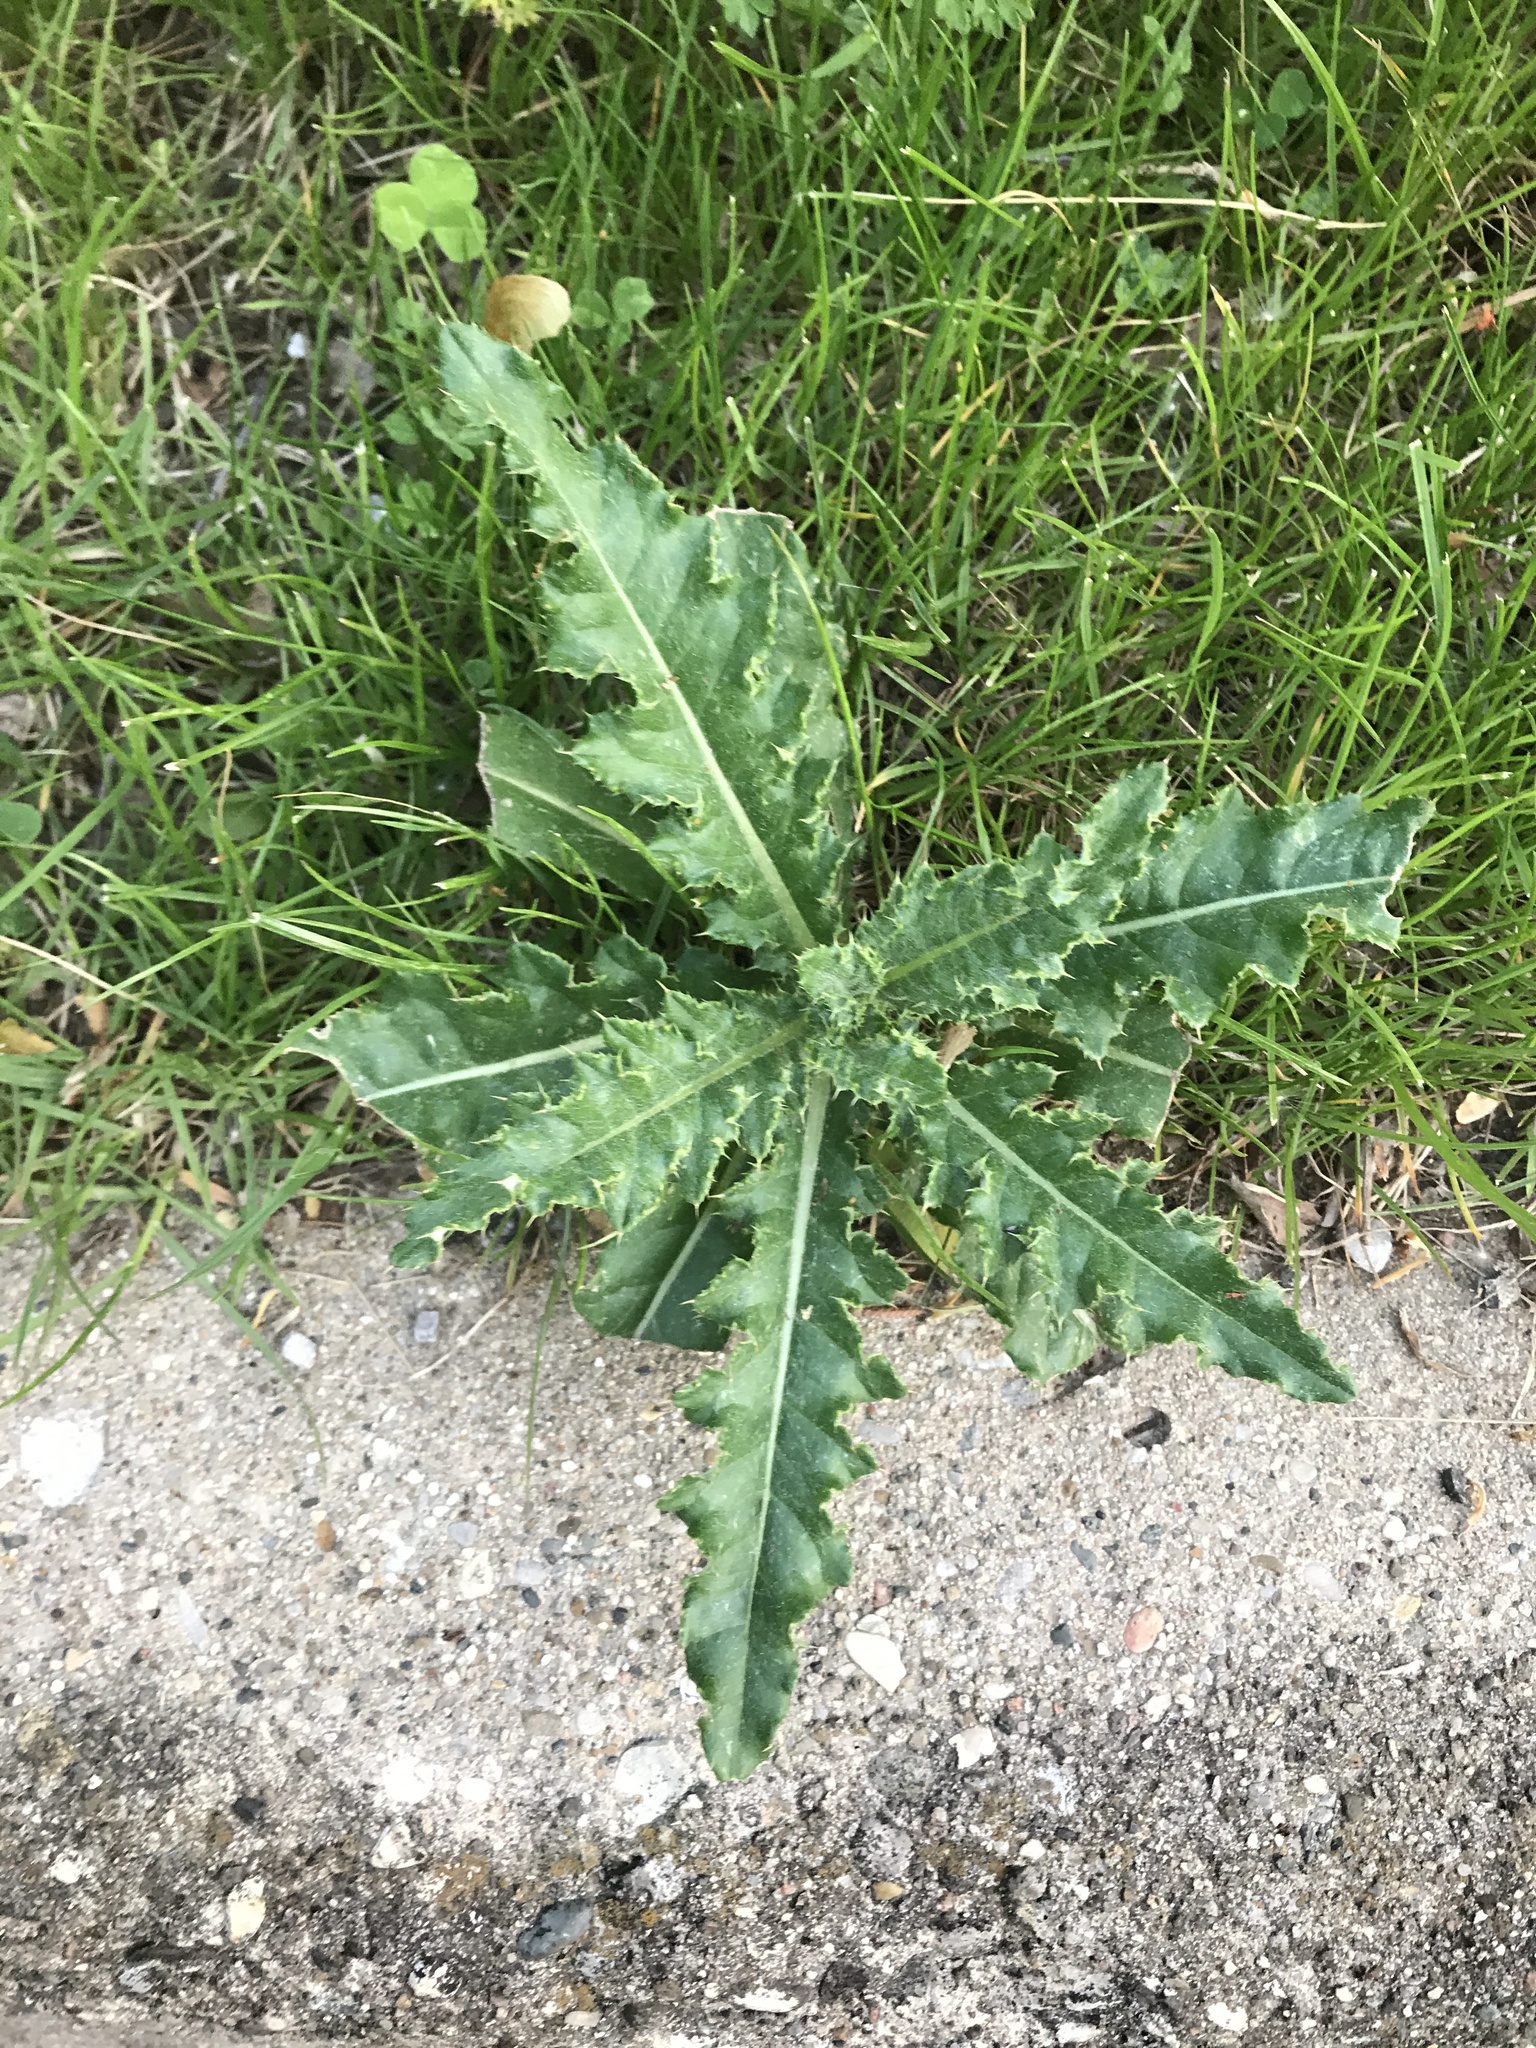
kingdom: Plantae
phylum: Tracheophyta
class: Magnoliopsida
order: Asterales
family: Asteraceae
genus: Cirsium
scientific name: Cirsium arvense
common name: Creeping thistle
